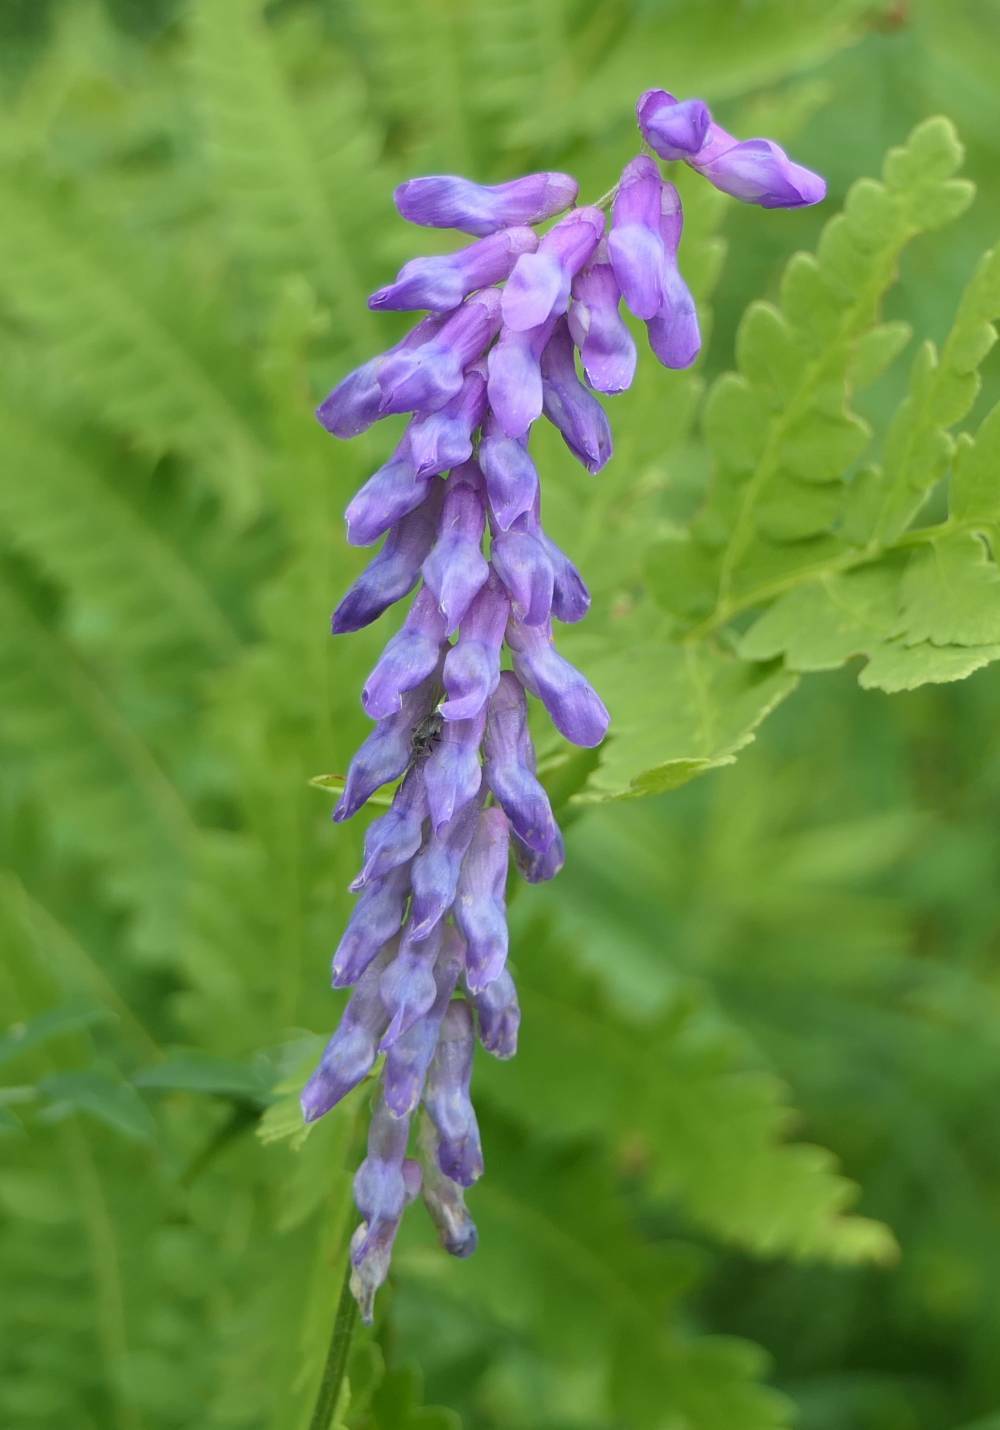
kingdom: Plantae
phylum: Tracheophyta
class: Magnoliopsida
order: Fabales
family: Fabaceae
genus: Vicia
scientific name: Vicia cracca
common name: Bird vetch
